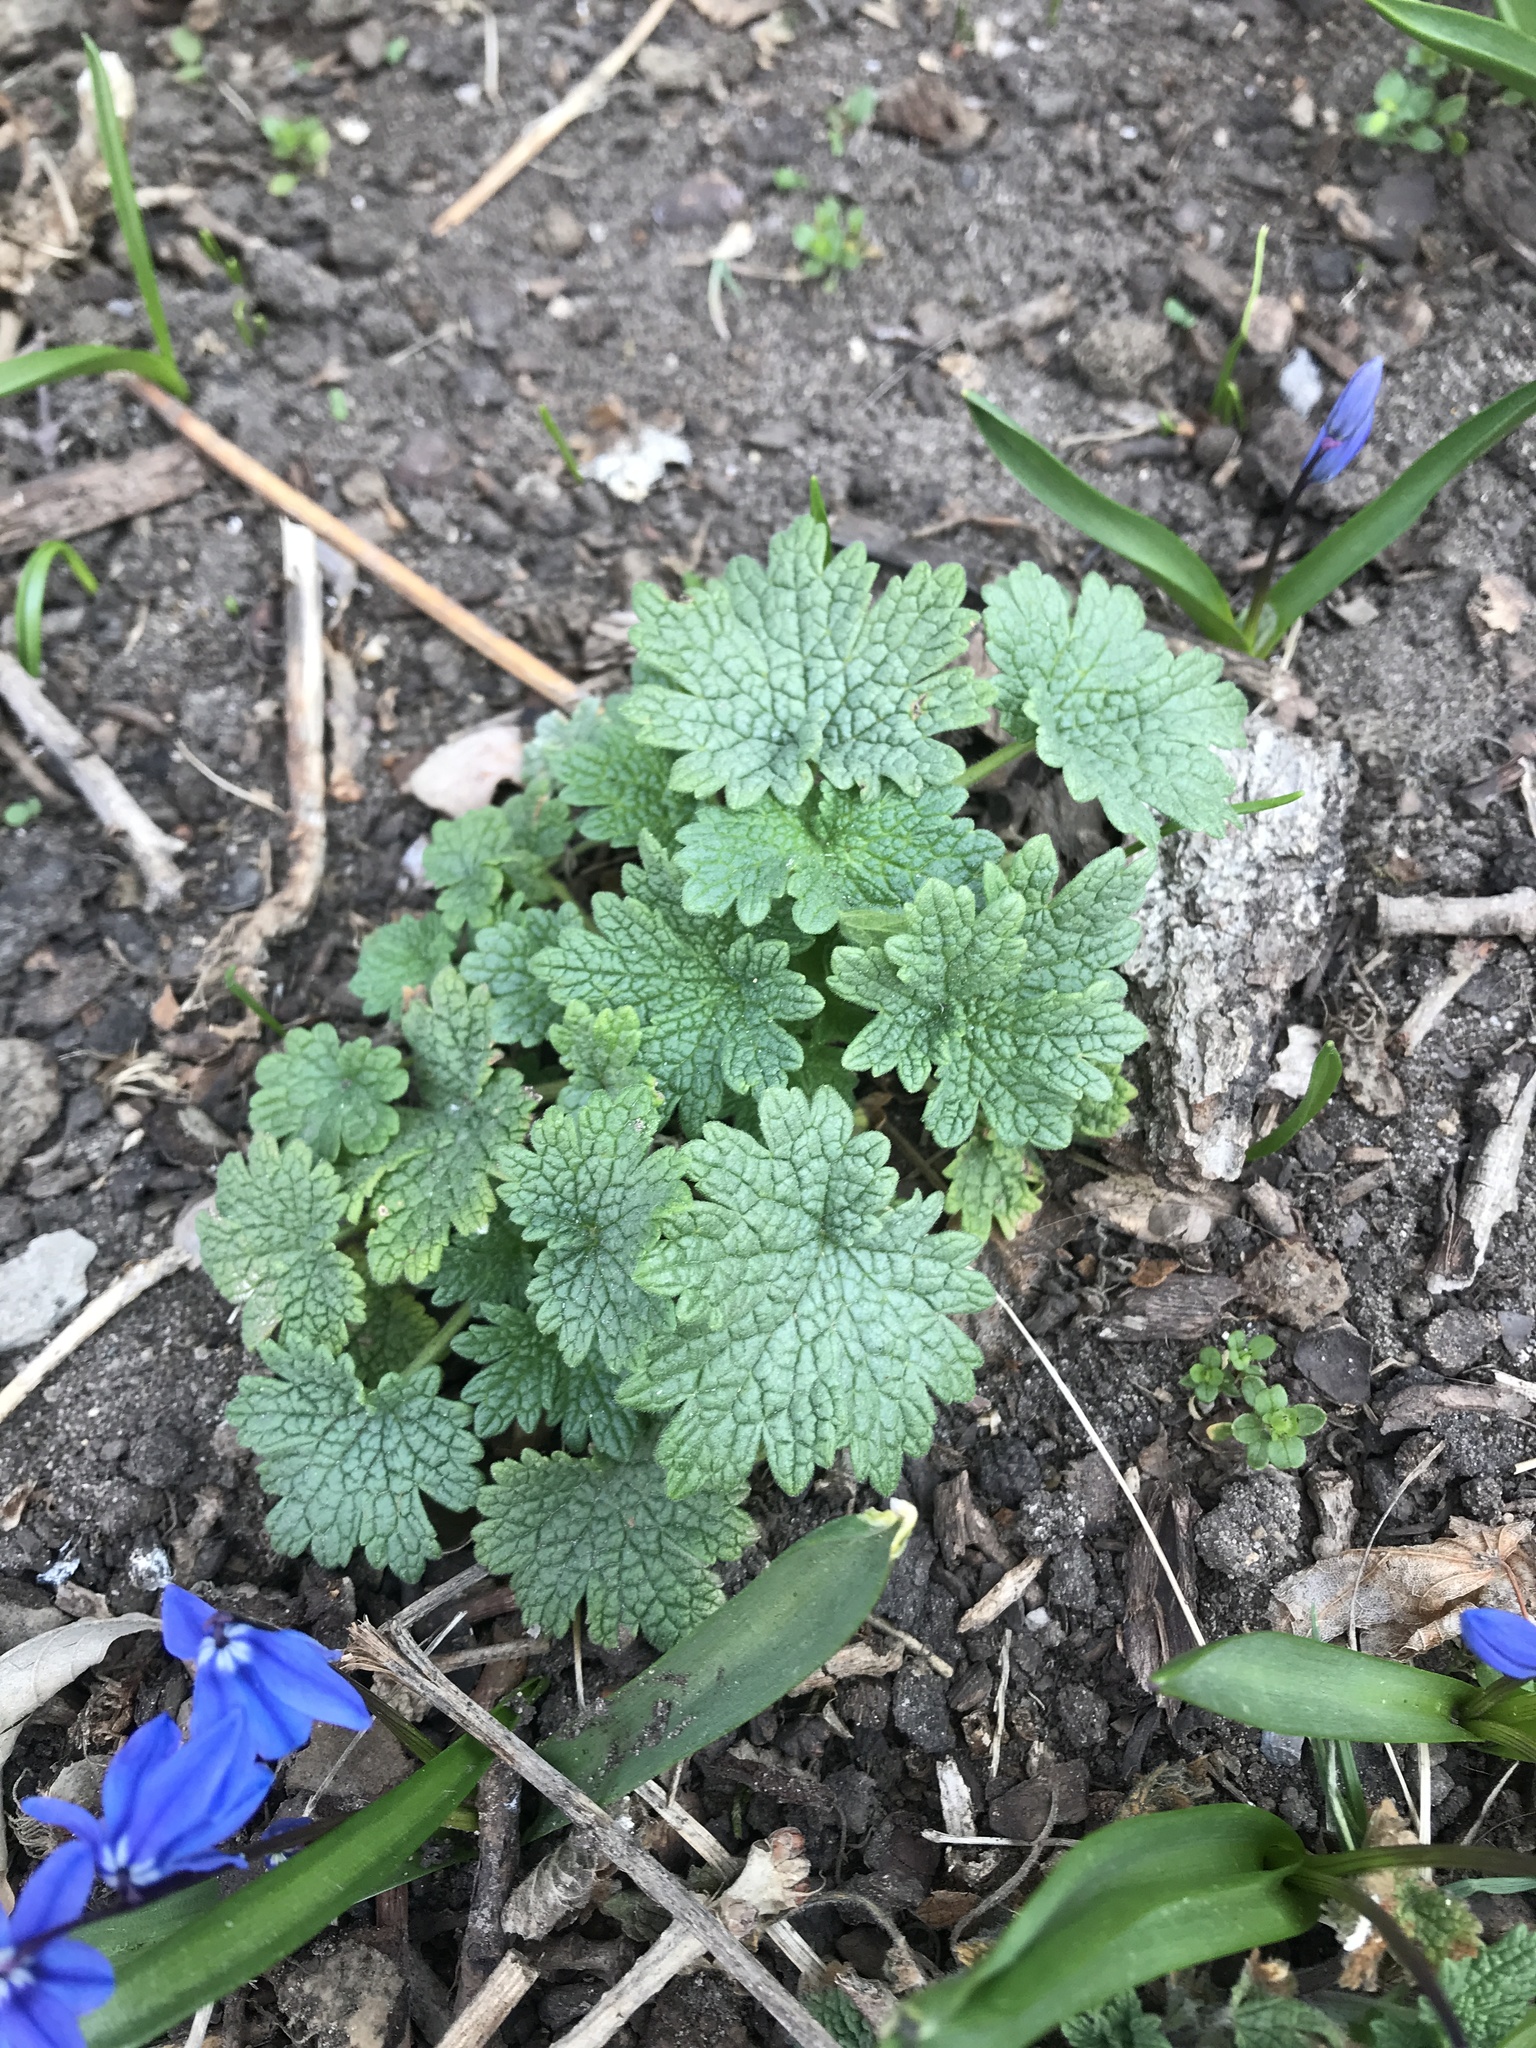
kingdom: Plantae
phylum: Tracheophyta
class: Magnoliopsida
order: Lamiales
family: Lamiaceae
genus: Leonurus
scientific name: Leonurus cardiaca
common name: Motherwort
